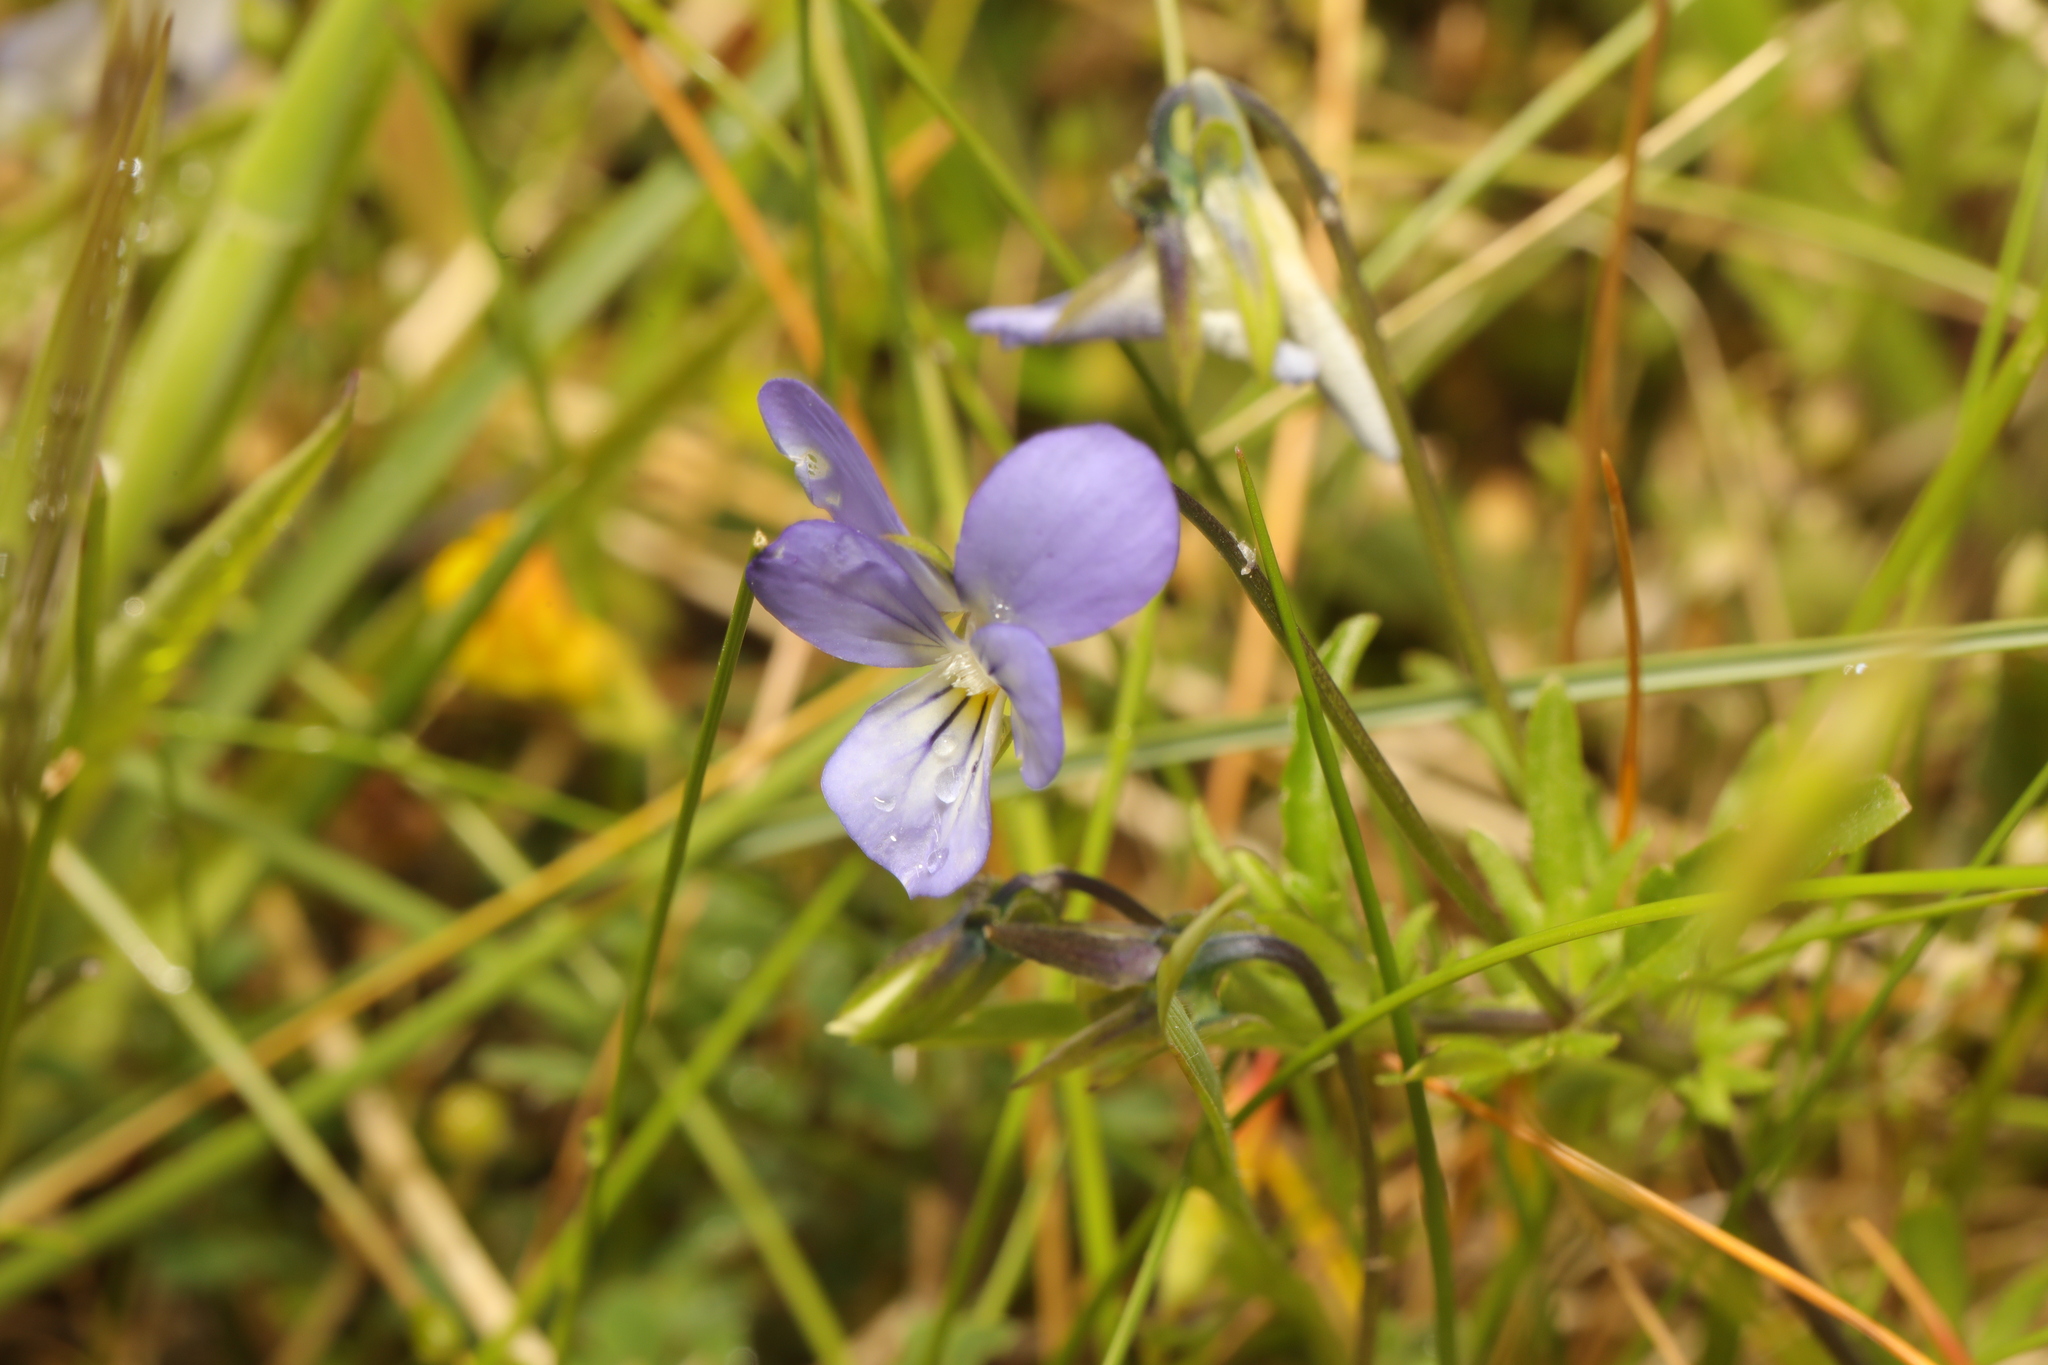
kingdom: Plantae
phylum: Tracheophyta
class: Magnoliopsida
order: Malpighiales
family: Violaceae
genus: Viola
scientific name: Viola tricolor
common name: Pansy
